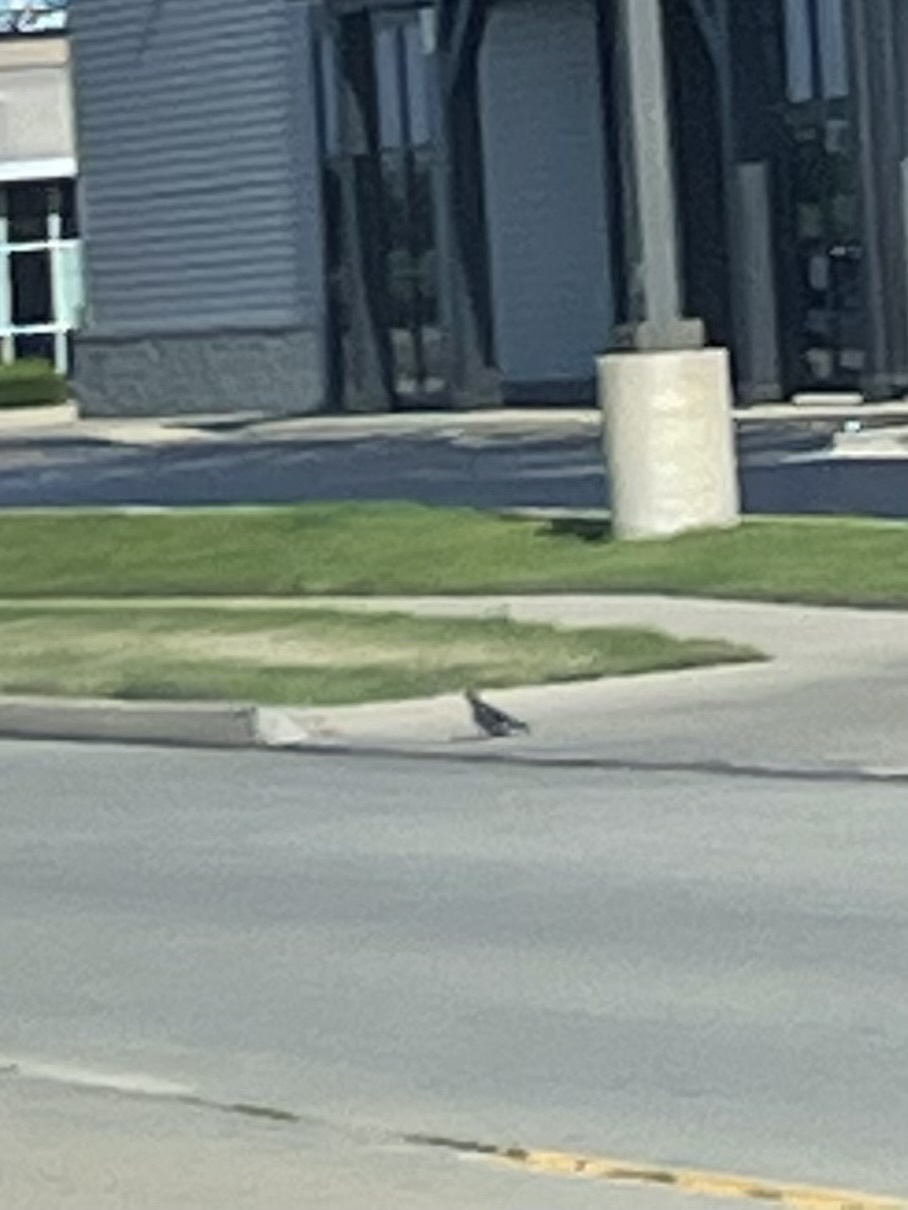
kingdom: Animalia
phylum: Chordata
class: Aves
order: Columbiformes
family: Columbidae
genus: Columba
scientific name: Columba livia
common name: Rock pigeon
